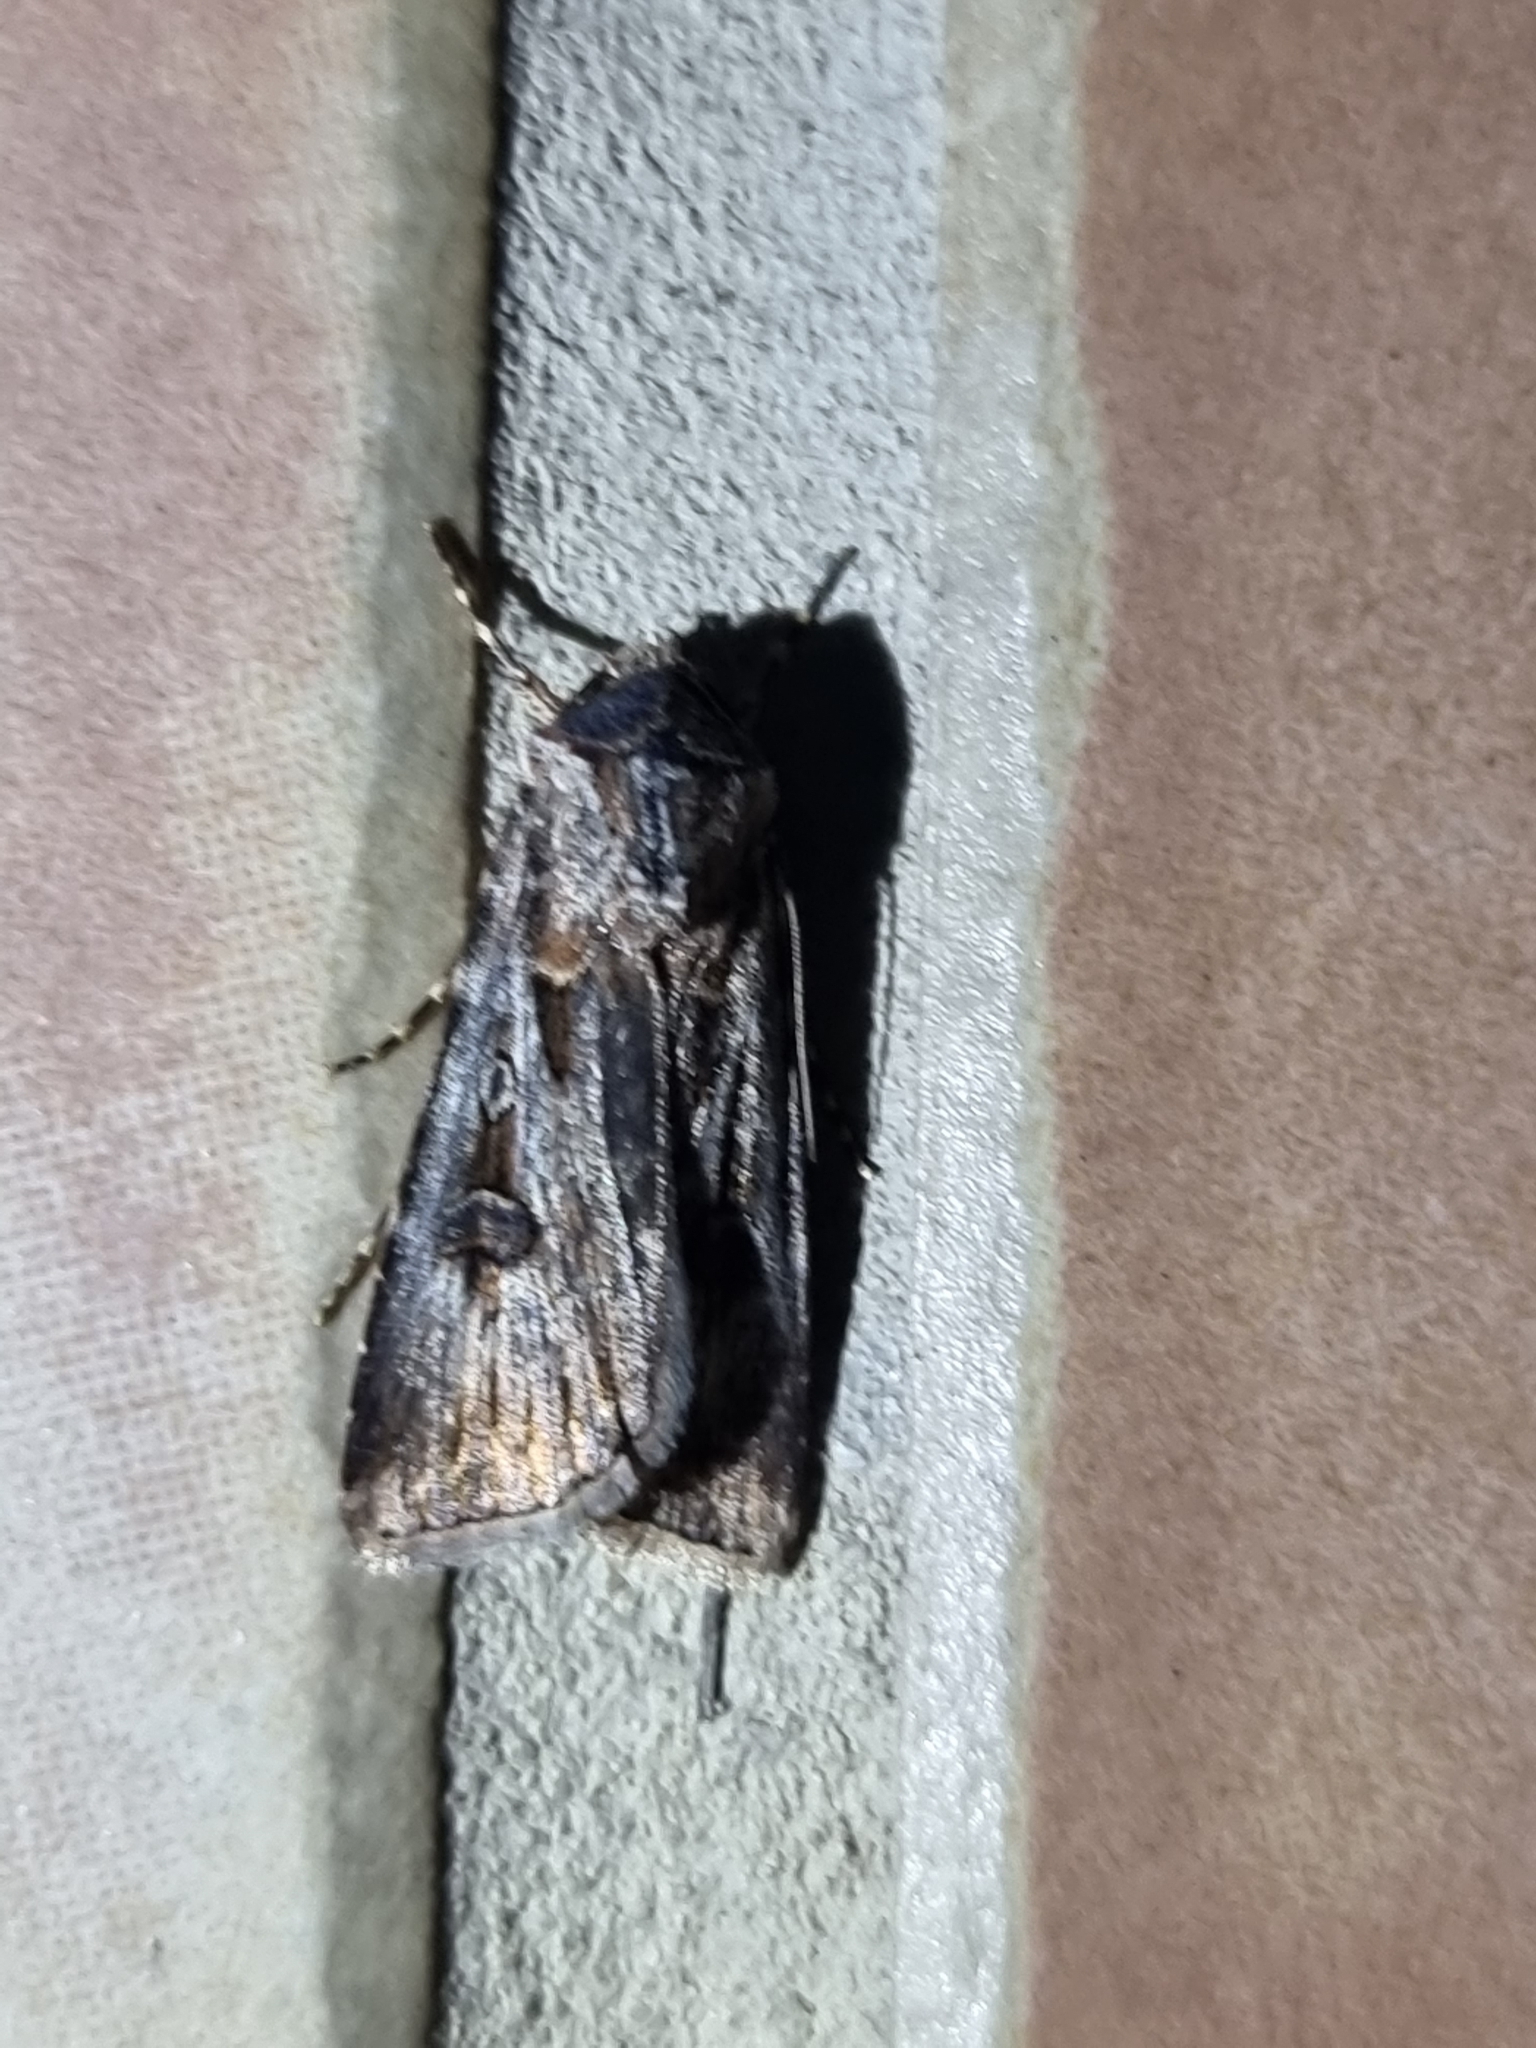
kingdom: Animalia
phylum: Arthropoda
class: Insecta
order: Lepidoptera
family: Noctuidae
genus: Agrotis
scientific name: Agrotis munda
